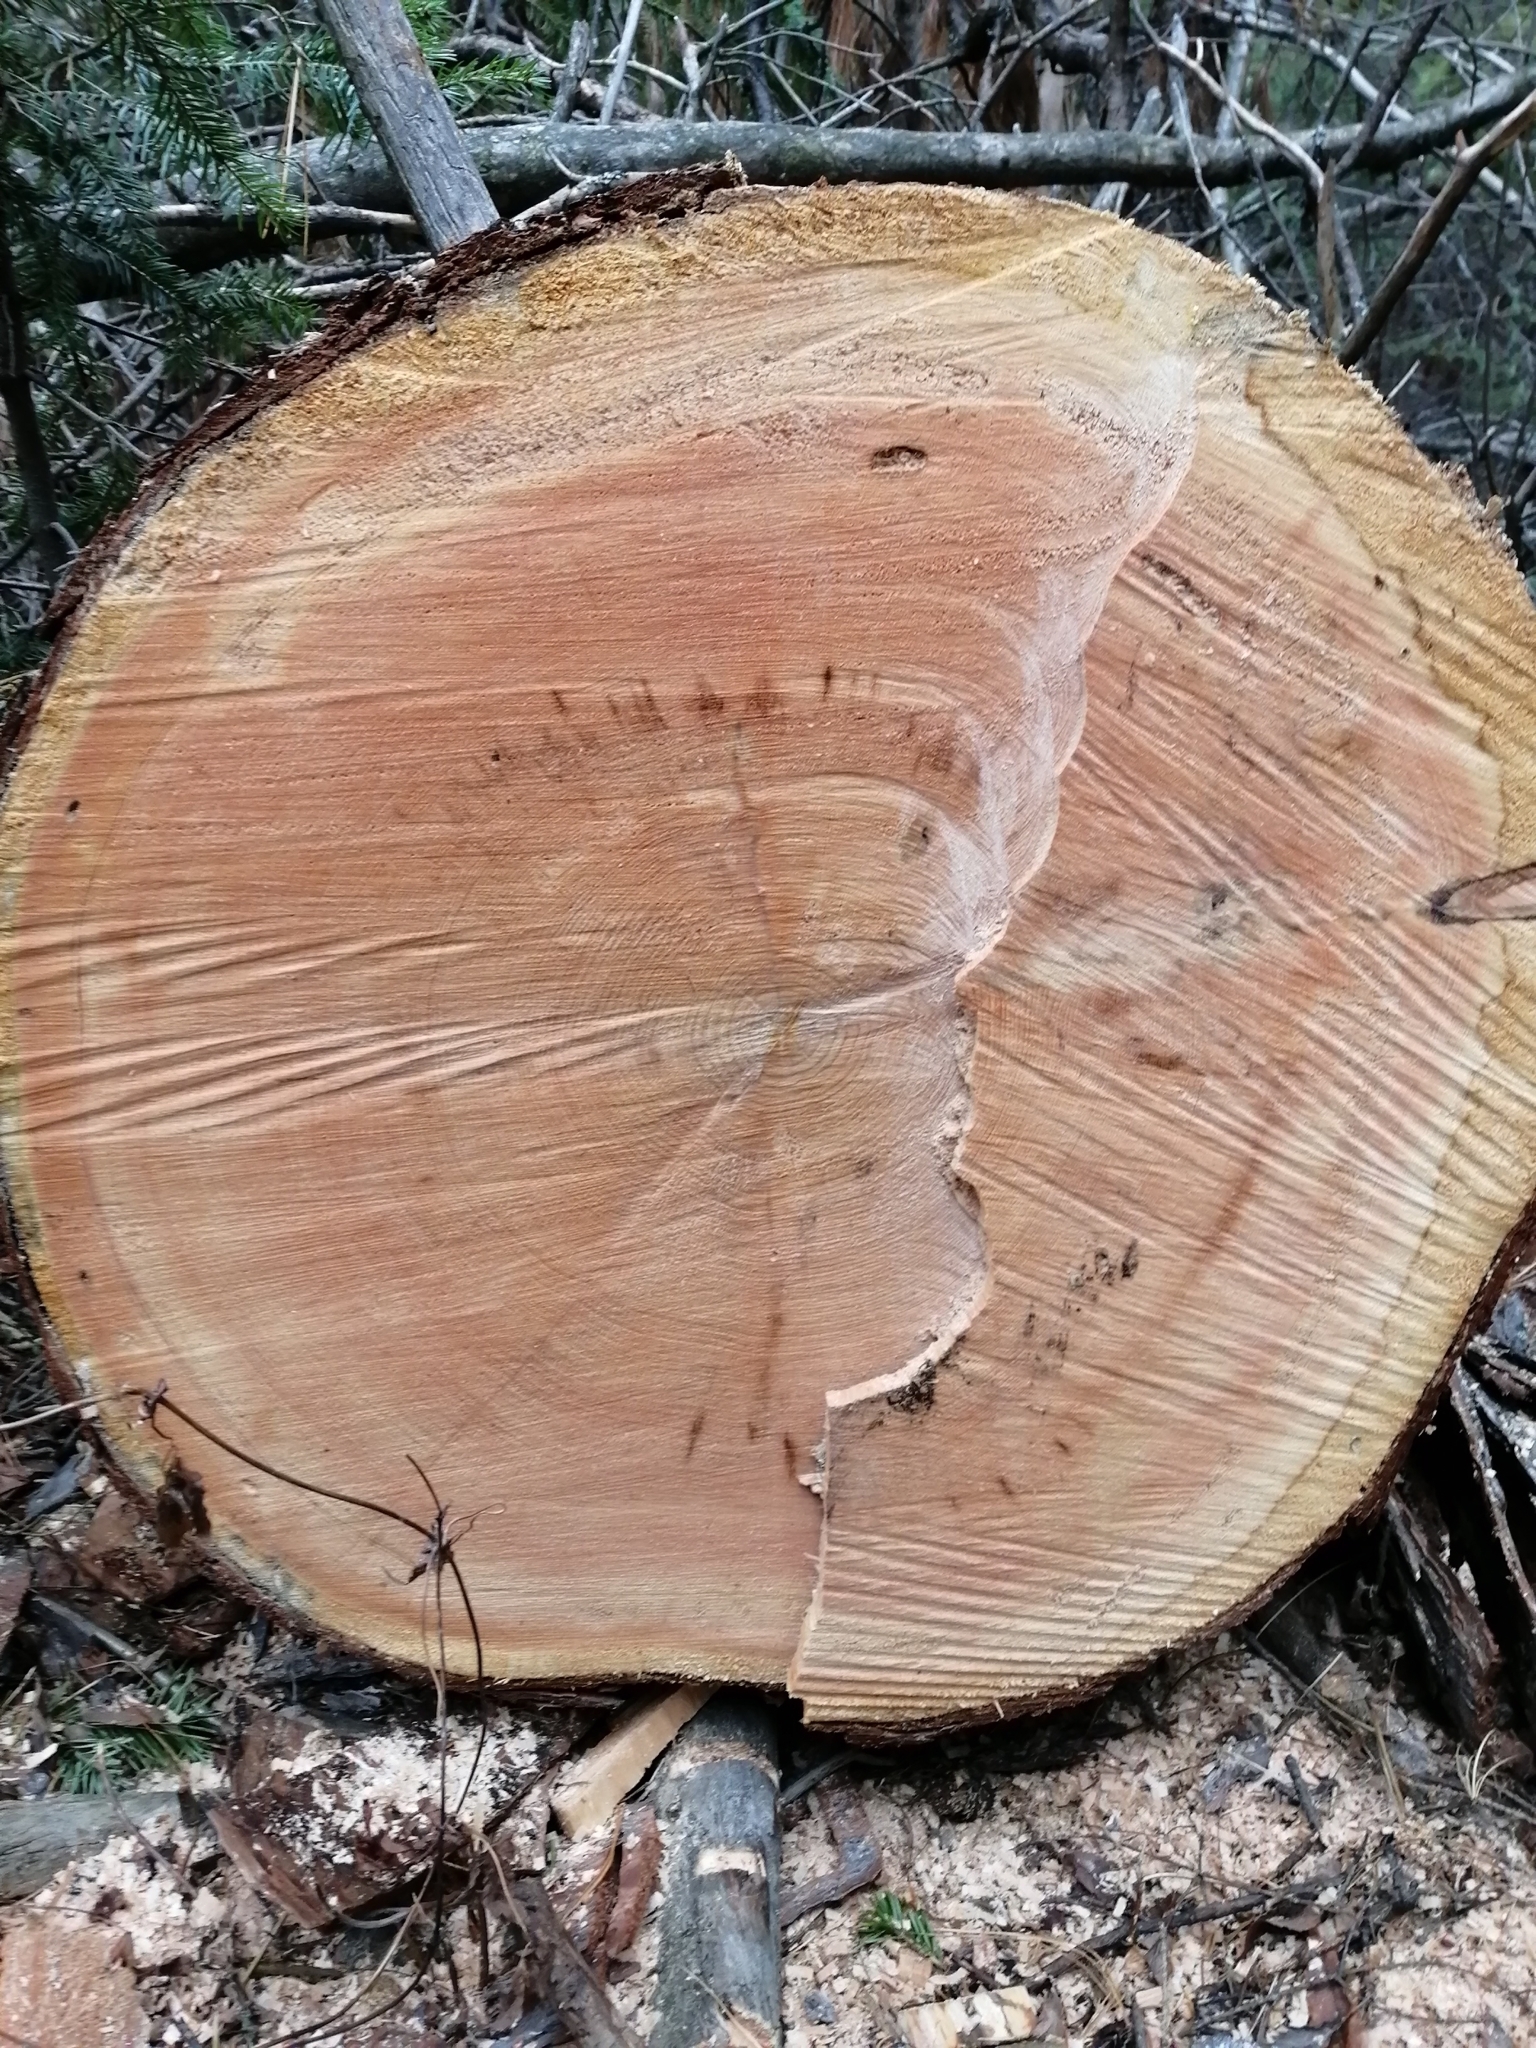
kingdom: Plantae
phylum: Tracheophyta
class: Pinopsida
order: Pinales
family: Pinaceae
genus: Pinus
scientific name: Pinus sibirica
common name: Siberian pine
